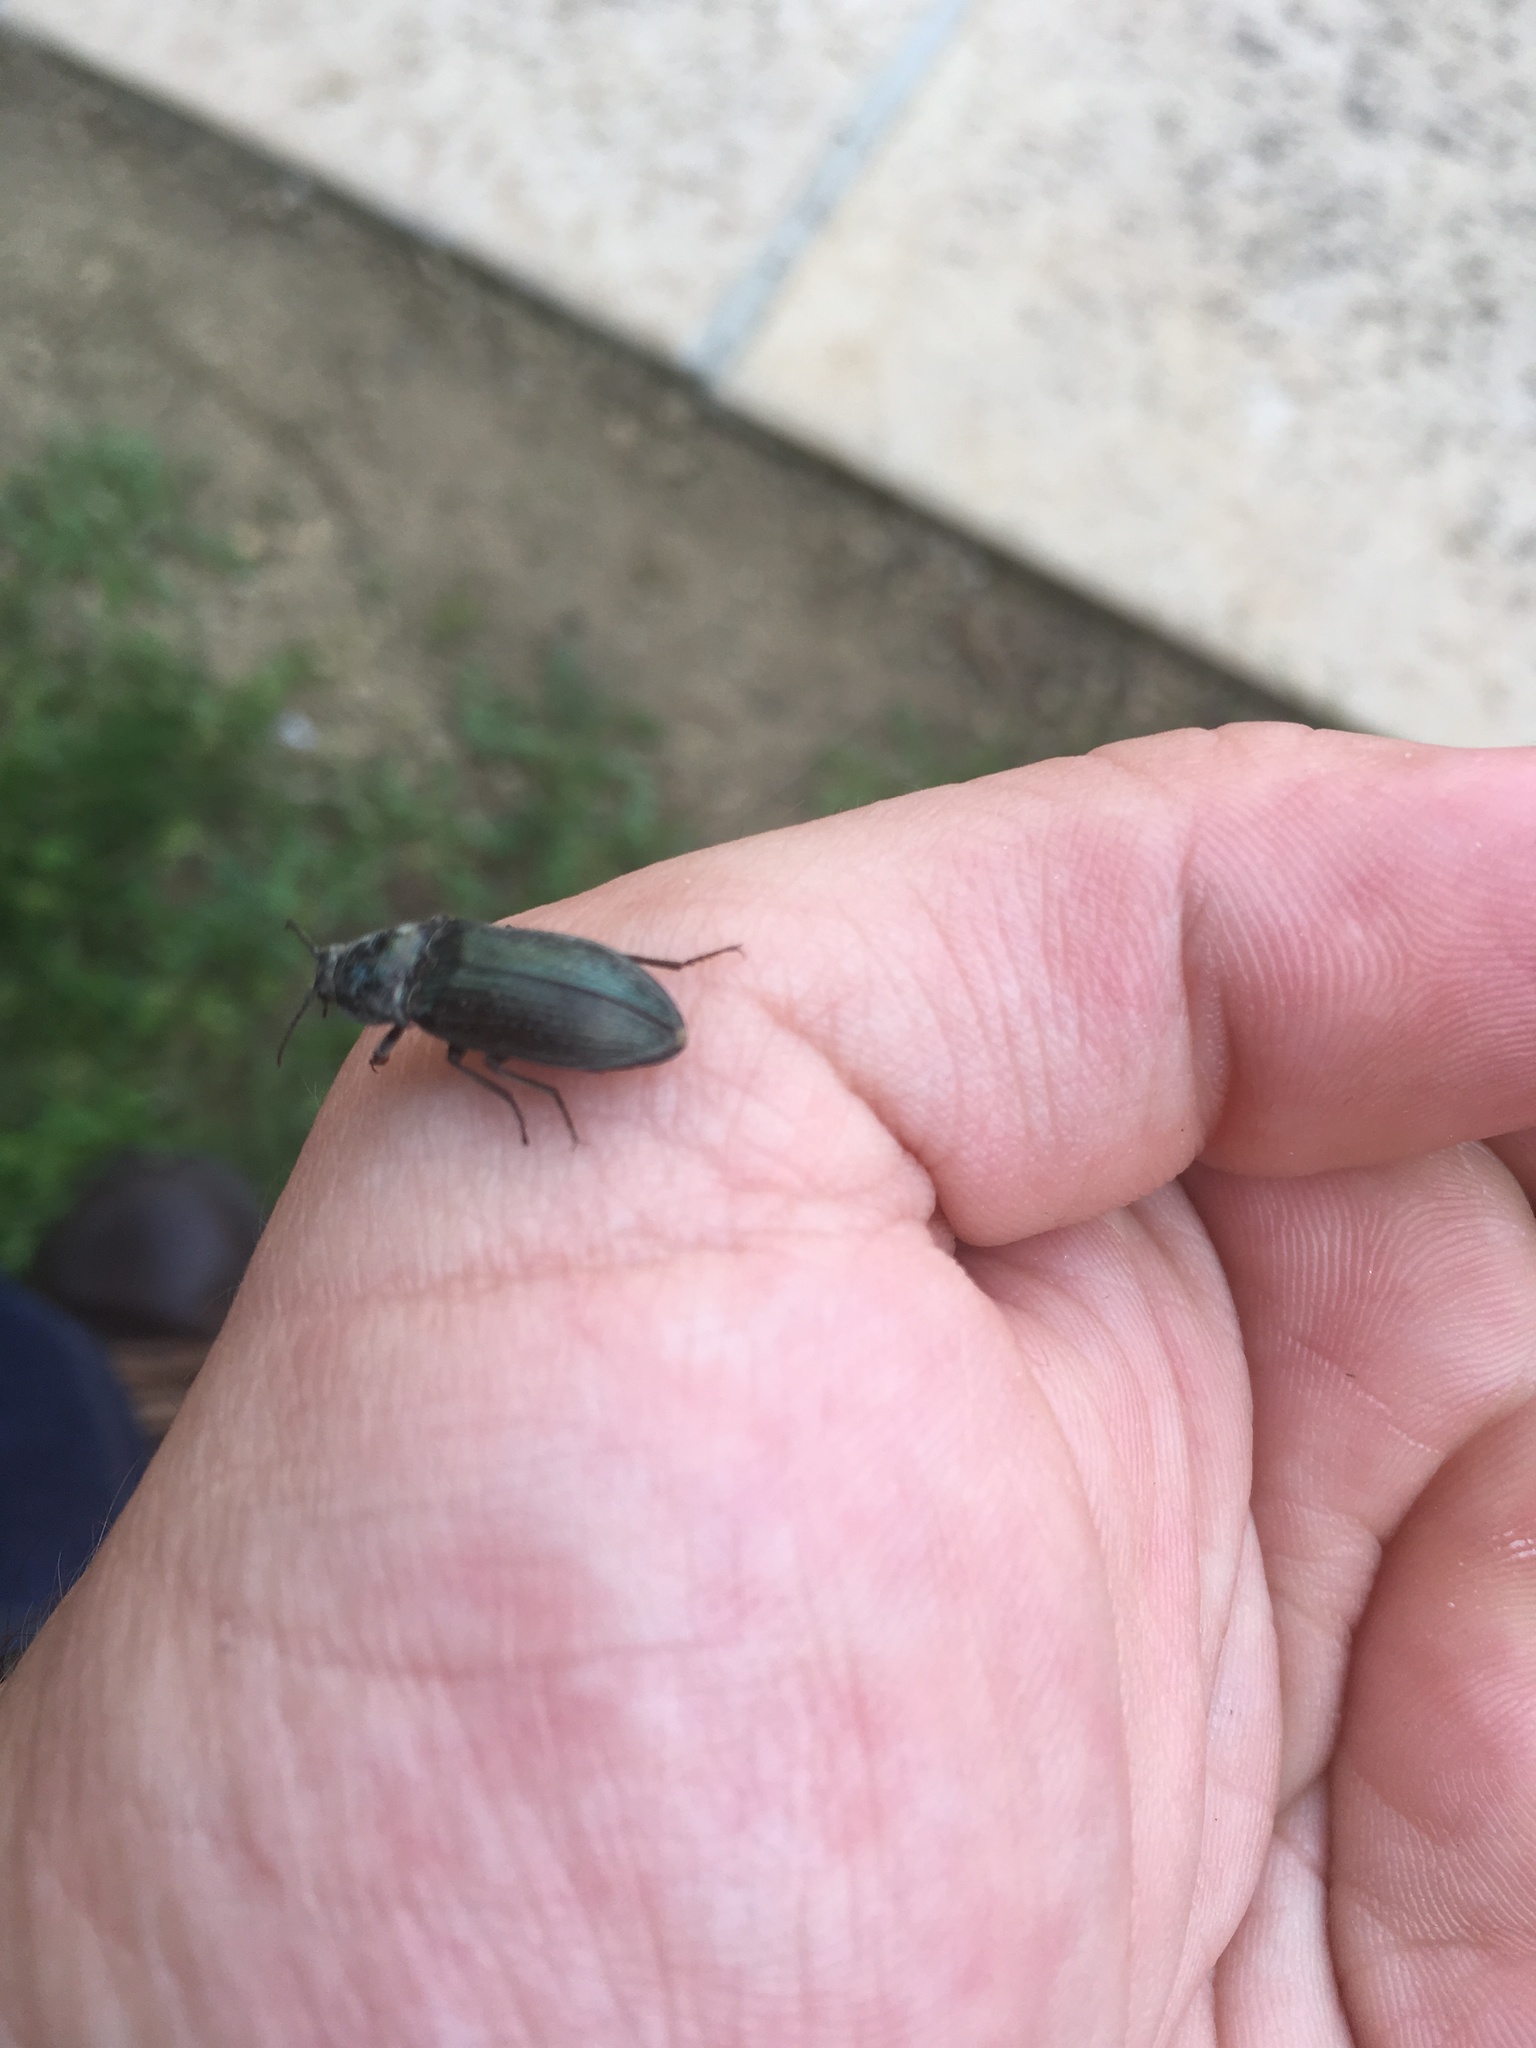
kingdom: Animalia
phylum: Arthropoda
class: Insecta
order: Coleoptera
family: Elateridae
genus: Selatosomus
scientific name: Selatosomus latus
